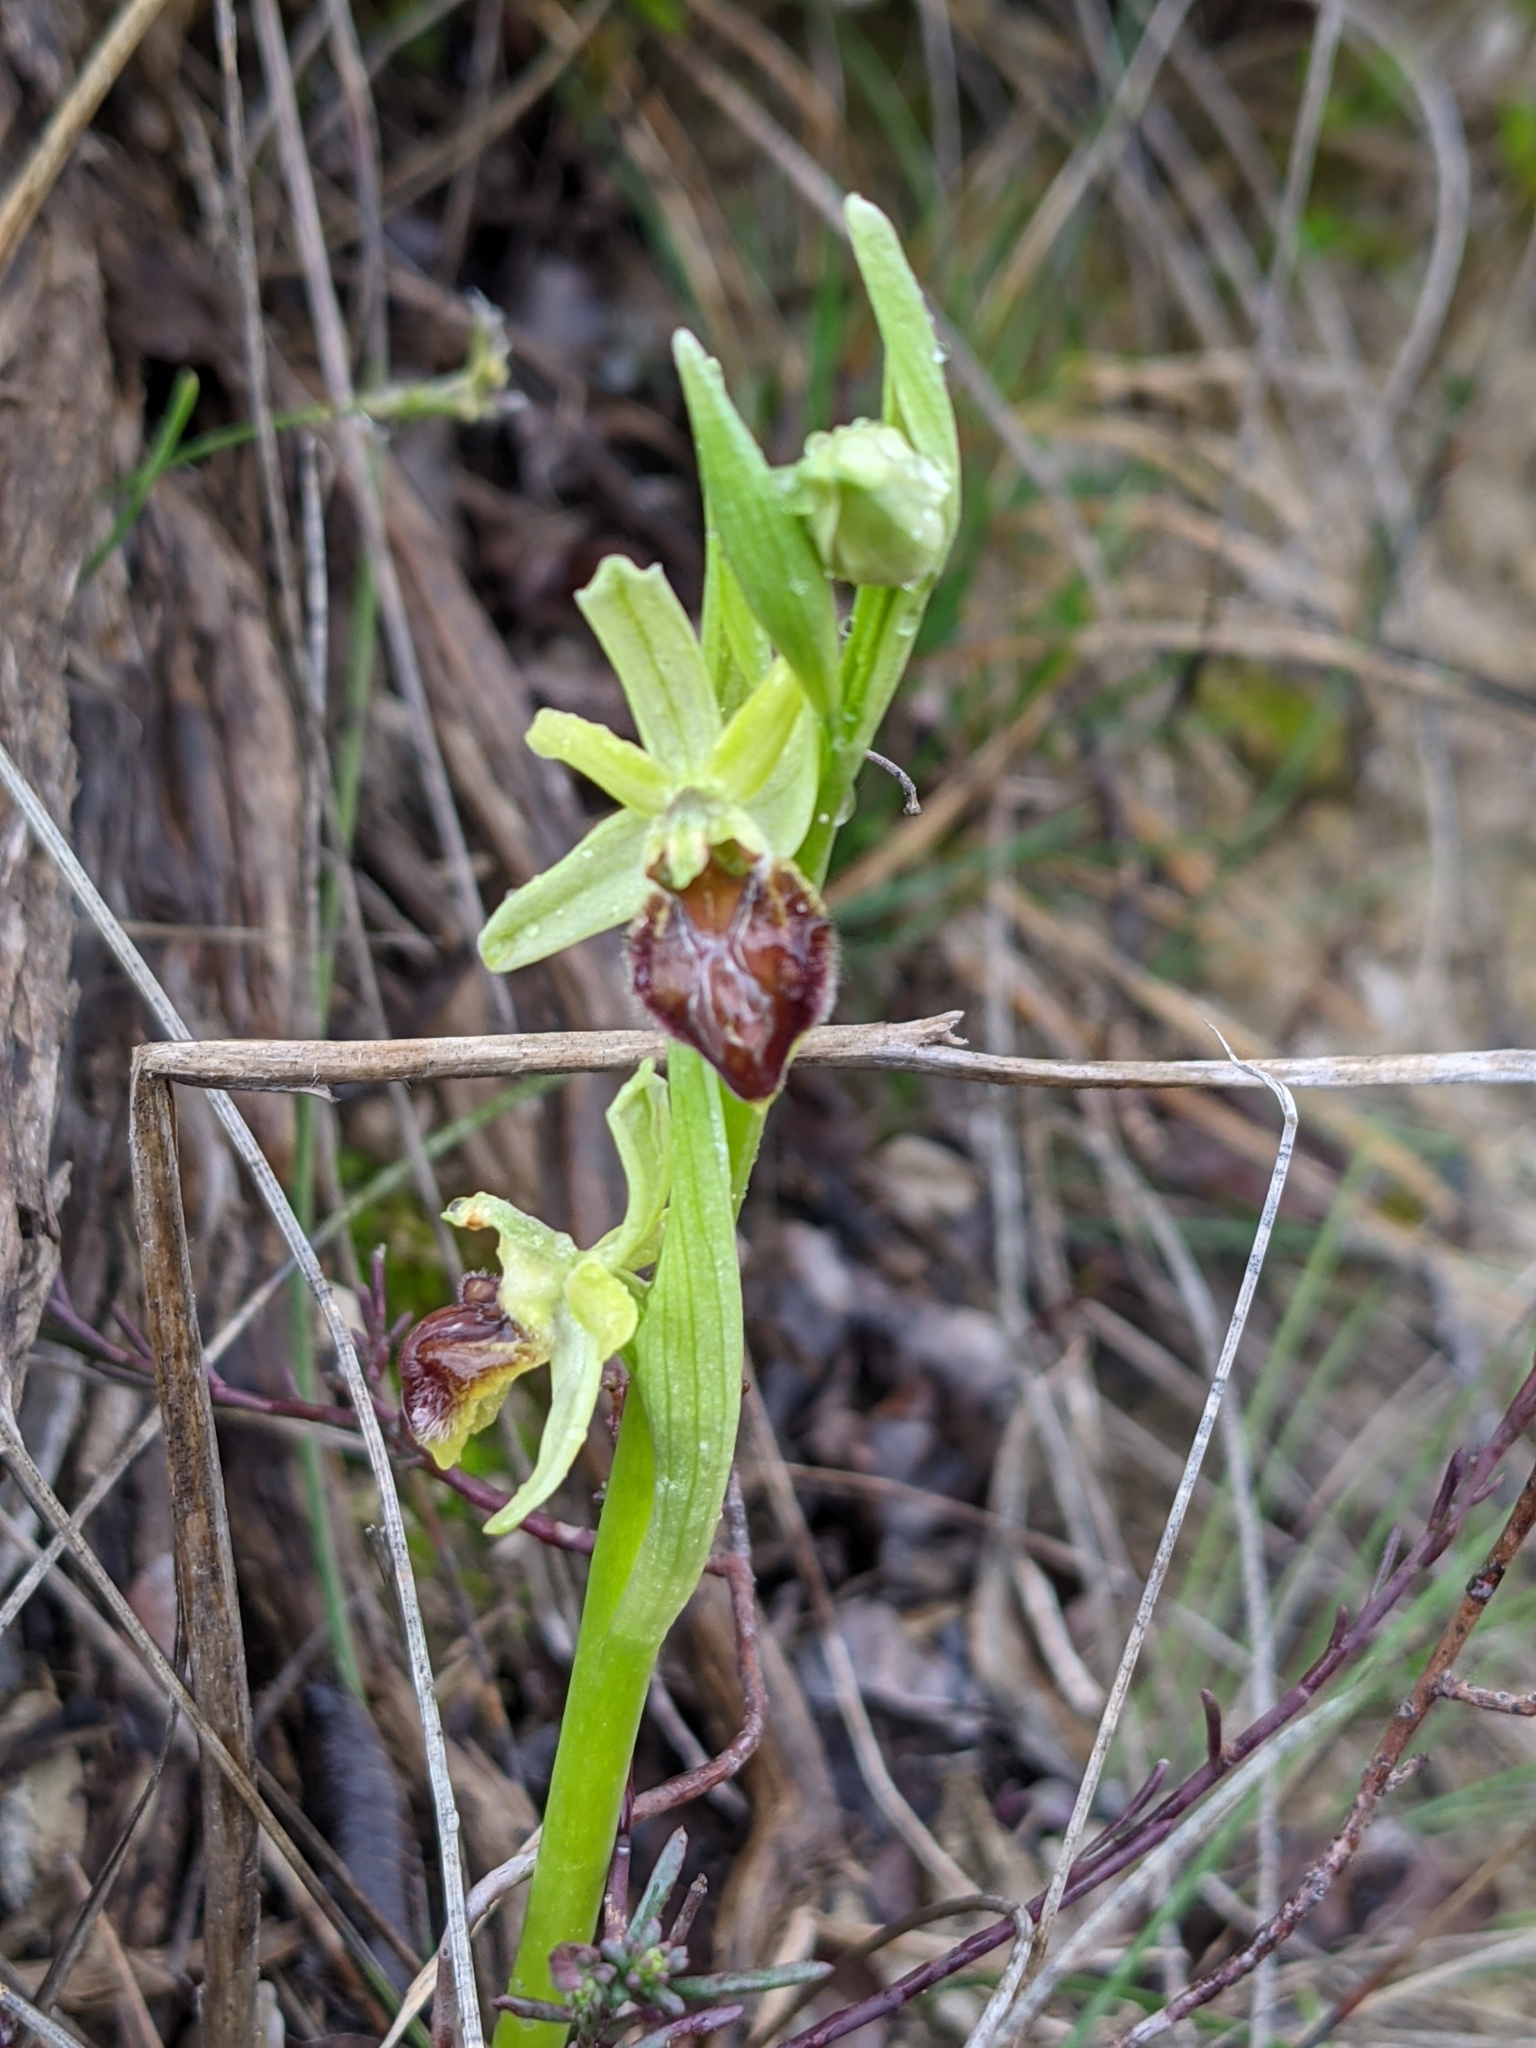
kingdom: Plantae
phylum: Tracheophyta
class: Liliopsida
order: Asparagales
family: Orchidaceae
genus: Ophrys
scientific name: Ophrys sphegodes
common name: Early spider-orchid
